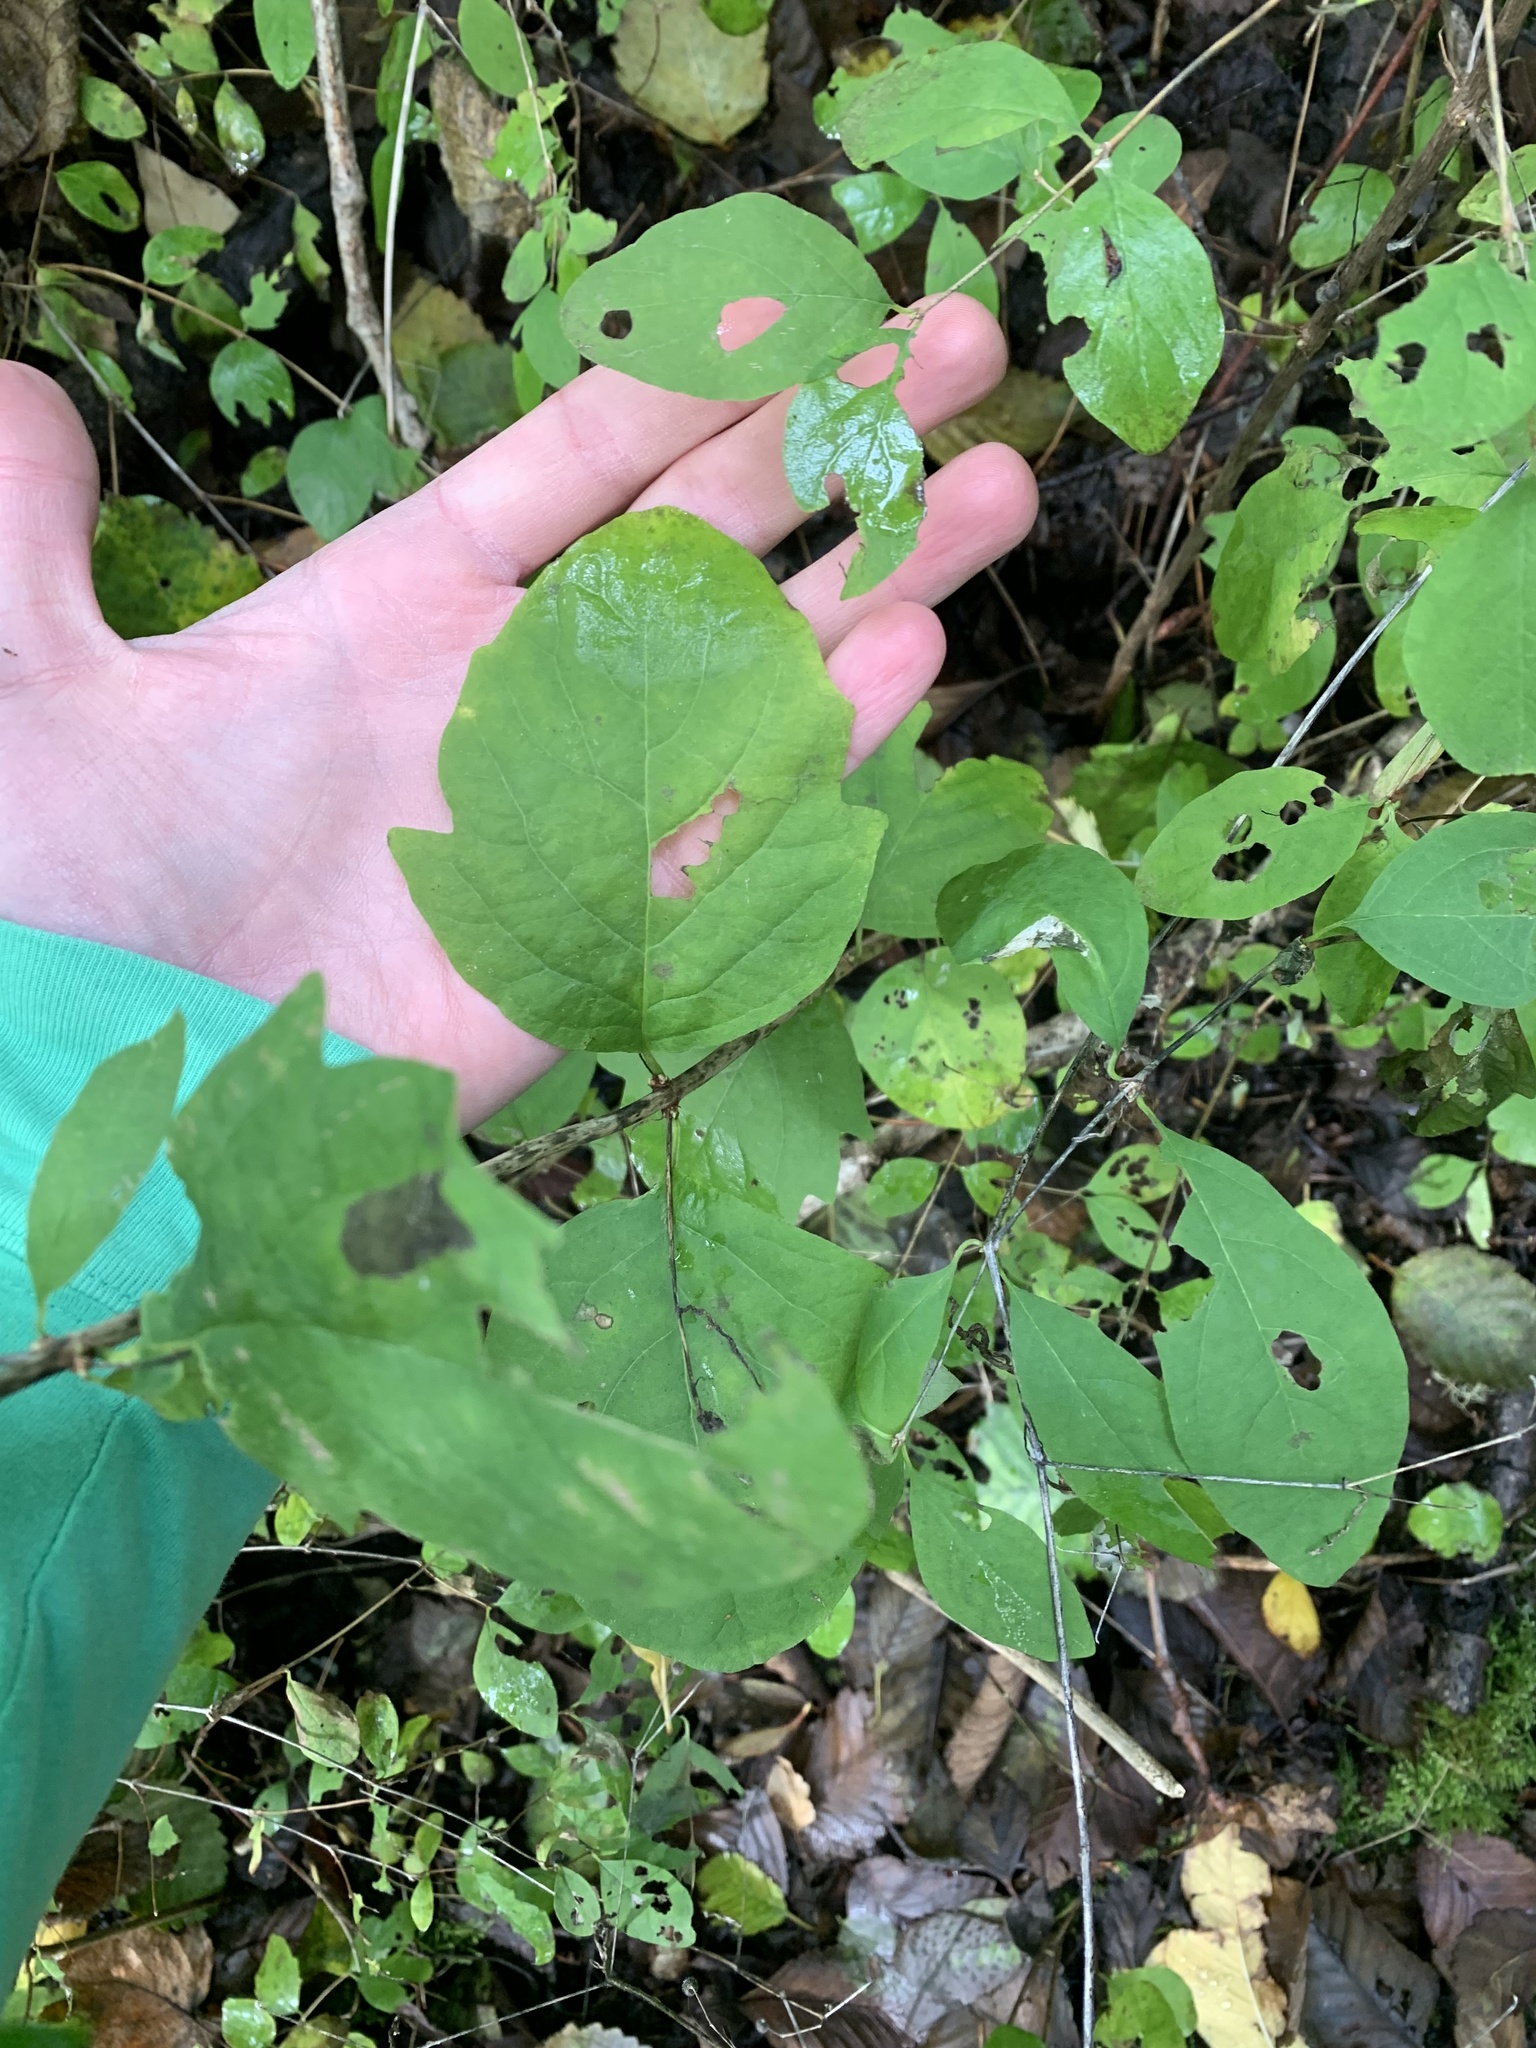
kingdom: Plantae
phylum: Tracheophyta
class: Magnoliopsida
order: Dipsacales
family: Caprifoliaceae
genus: Symphoricarpos
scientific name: Symphoricarpos albus
